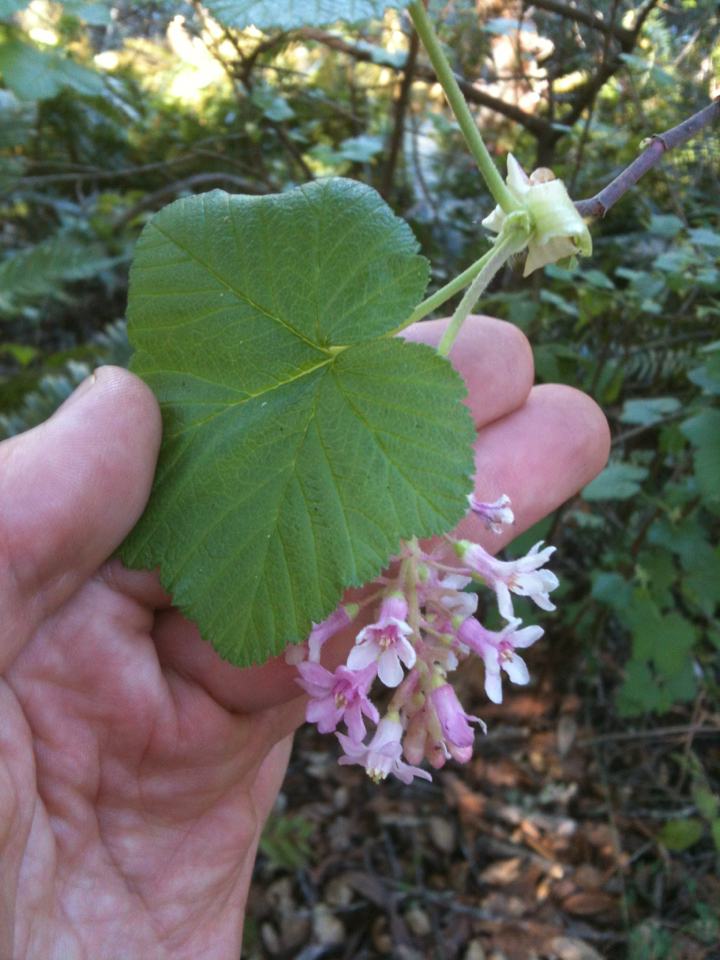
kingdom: Plantae
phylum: Tracheophyta
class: Magnoliopsida
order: Saxifragales
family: Grossulariaceae
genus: Ribes
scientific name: Ribes sanguineum
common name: Flowering currant
